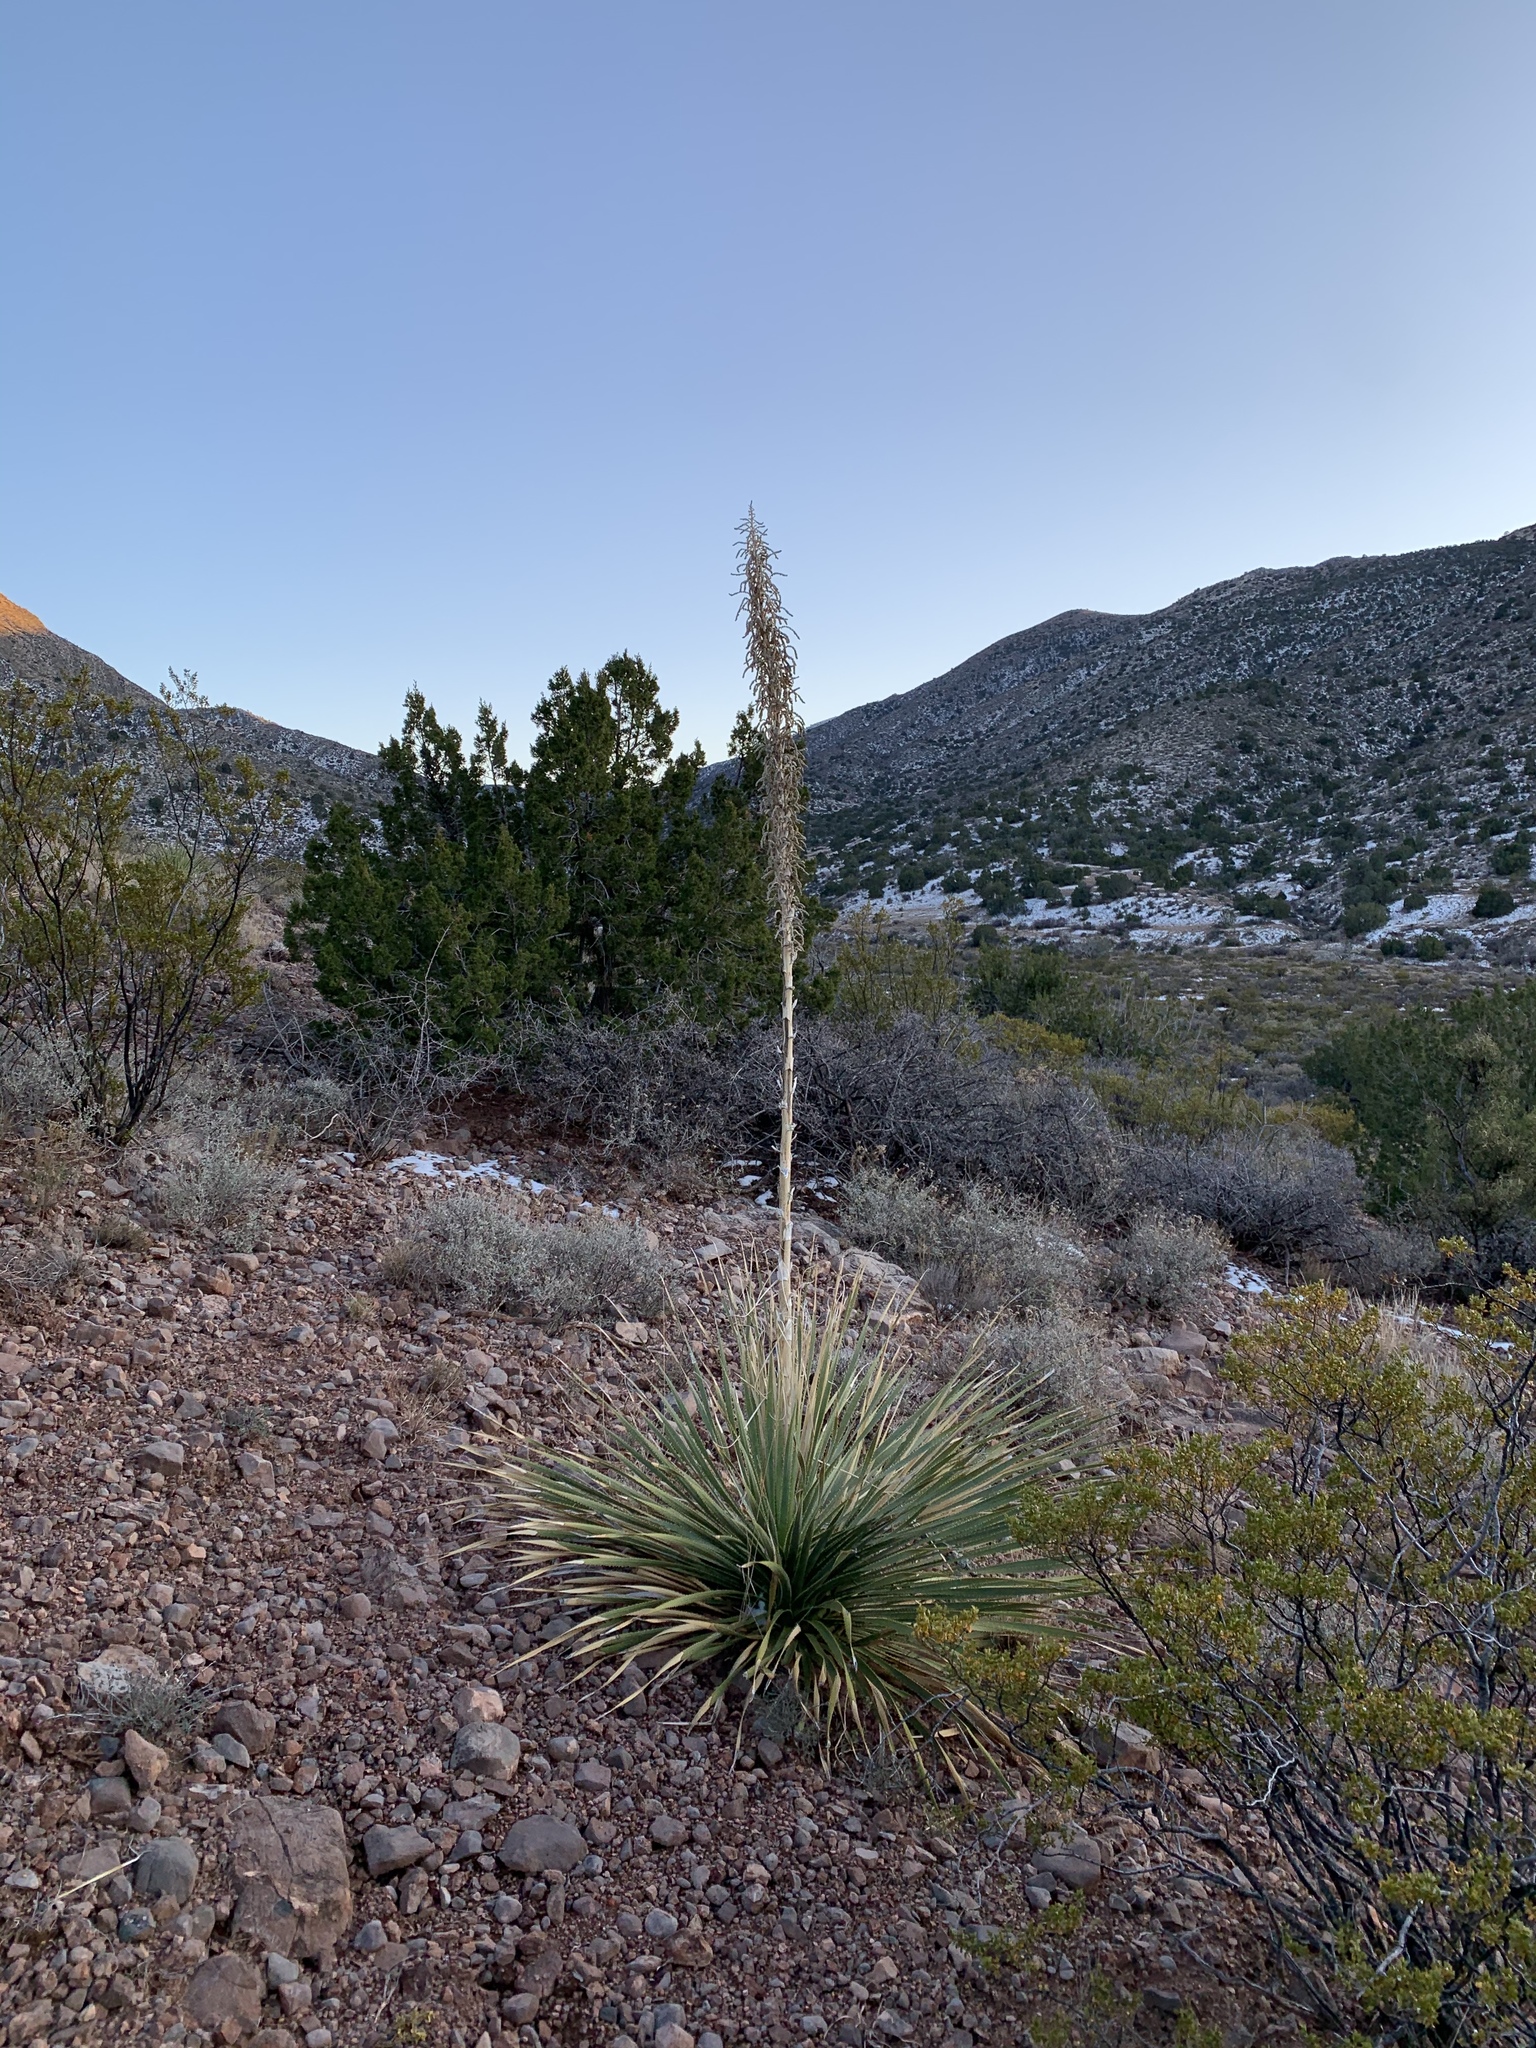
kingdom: Plantae
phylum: Tracheophyta
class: Liliopsida
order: Asparagales
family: Asparagaceae
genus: Dasylirion
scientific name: Dasylirion wheeleri
